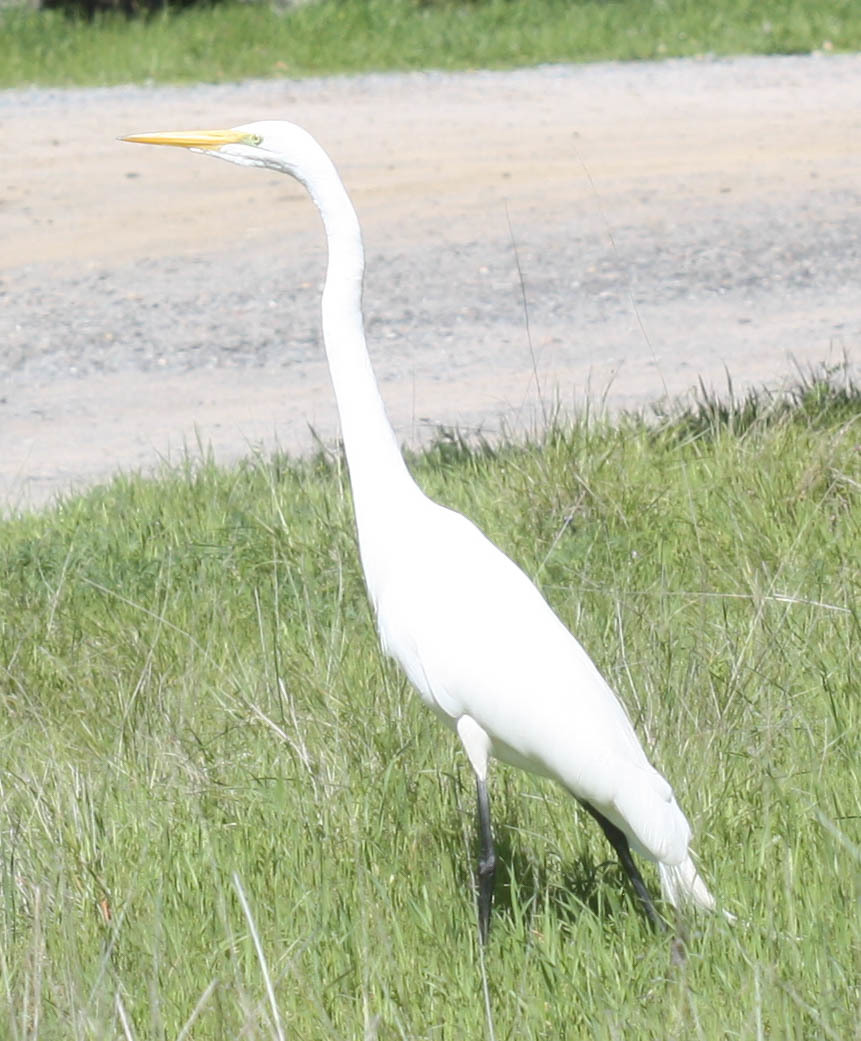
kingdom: Animalia
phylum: Chordata
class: Aves
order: Pelecaniformes
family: Ardeidae
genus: Ardea
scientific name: Ardea alba
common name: Great egret
